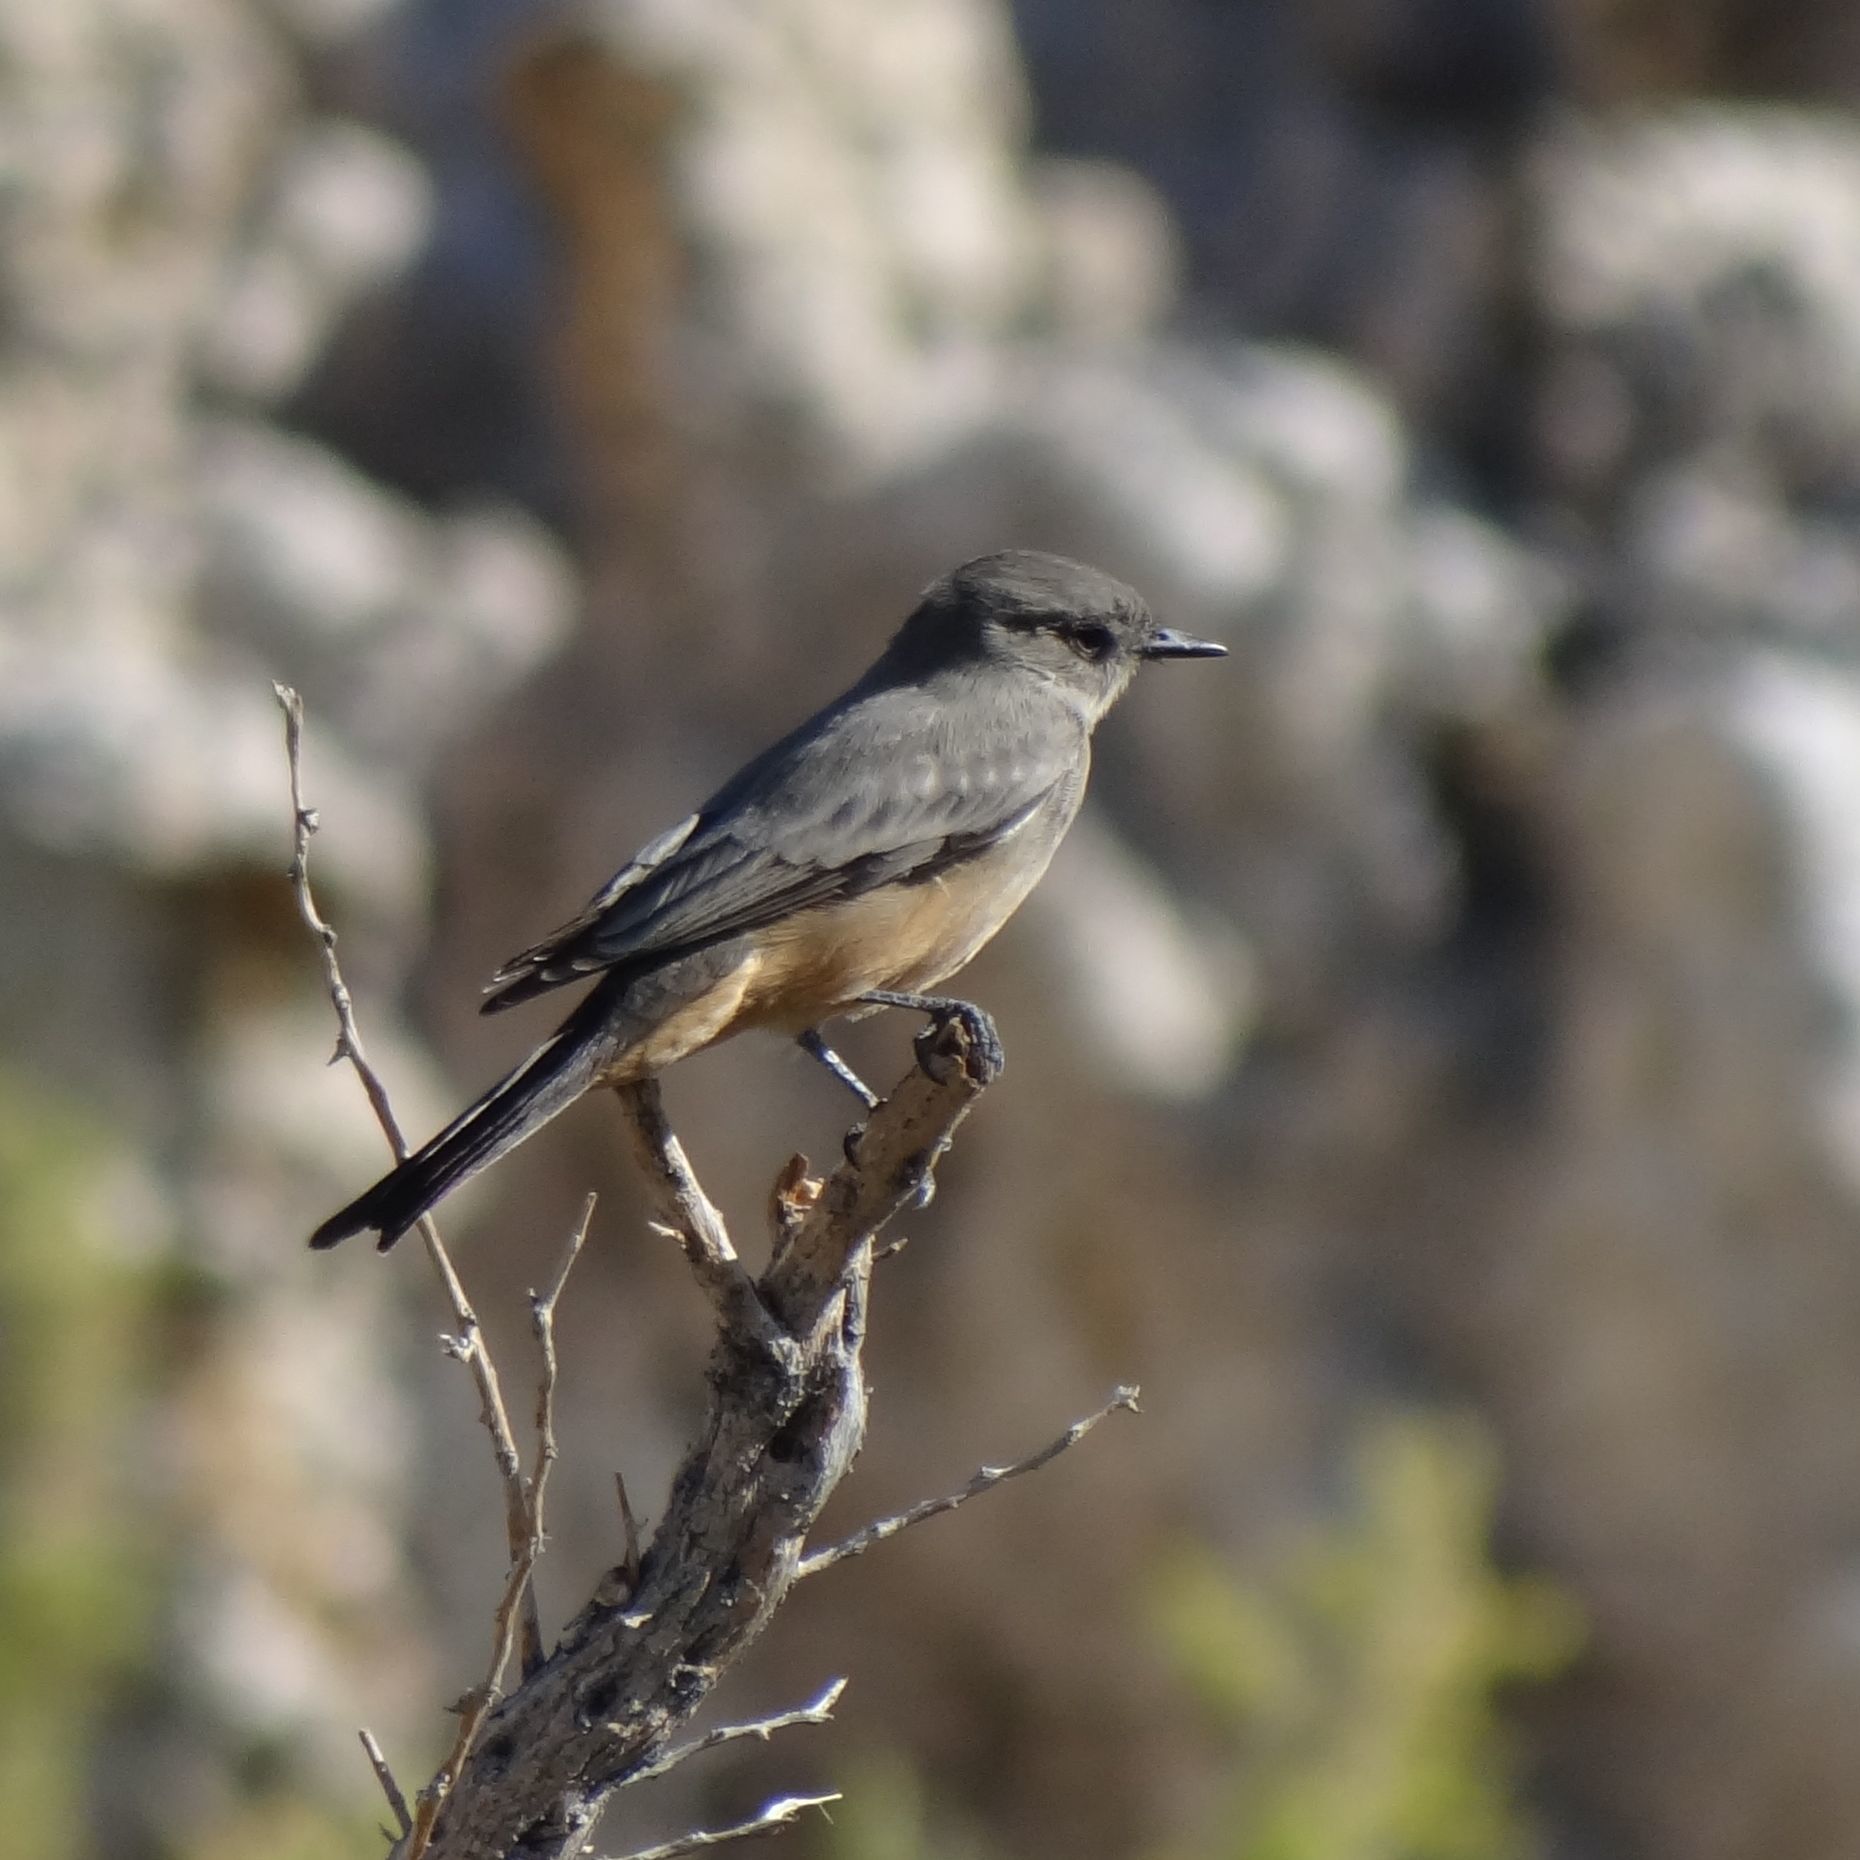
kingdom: Animalia
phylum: Chordata
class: Aves
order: Passeriformes
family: Tyrannidae
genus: Sayornis
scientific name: Sayornis saya
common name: Say's phoebe
